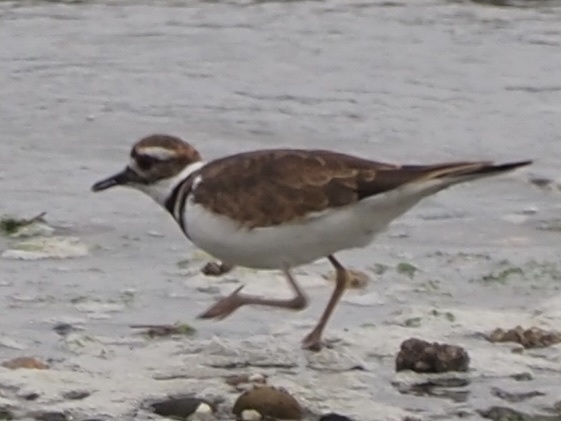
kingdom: Animalia
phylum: Chordata
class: Aves
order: Charadriiformes
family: Charadriidae
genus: Charadrius
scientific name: Charadrius vociferus
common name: Killdeer
